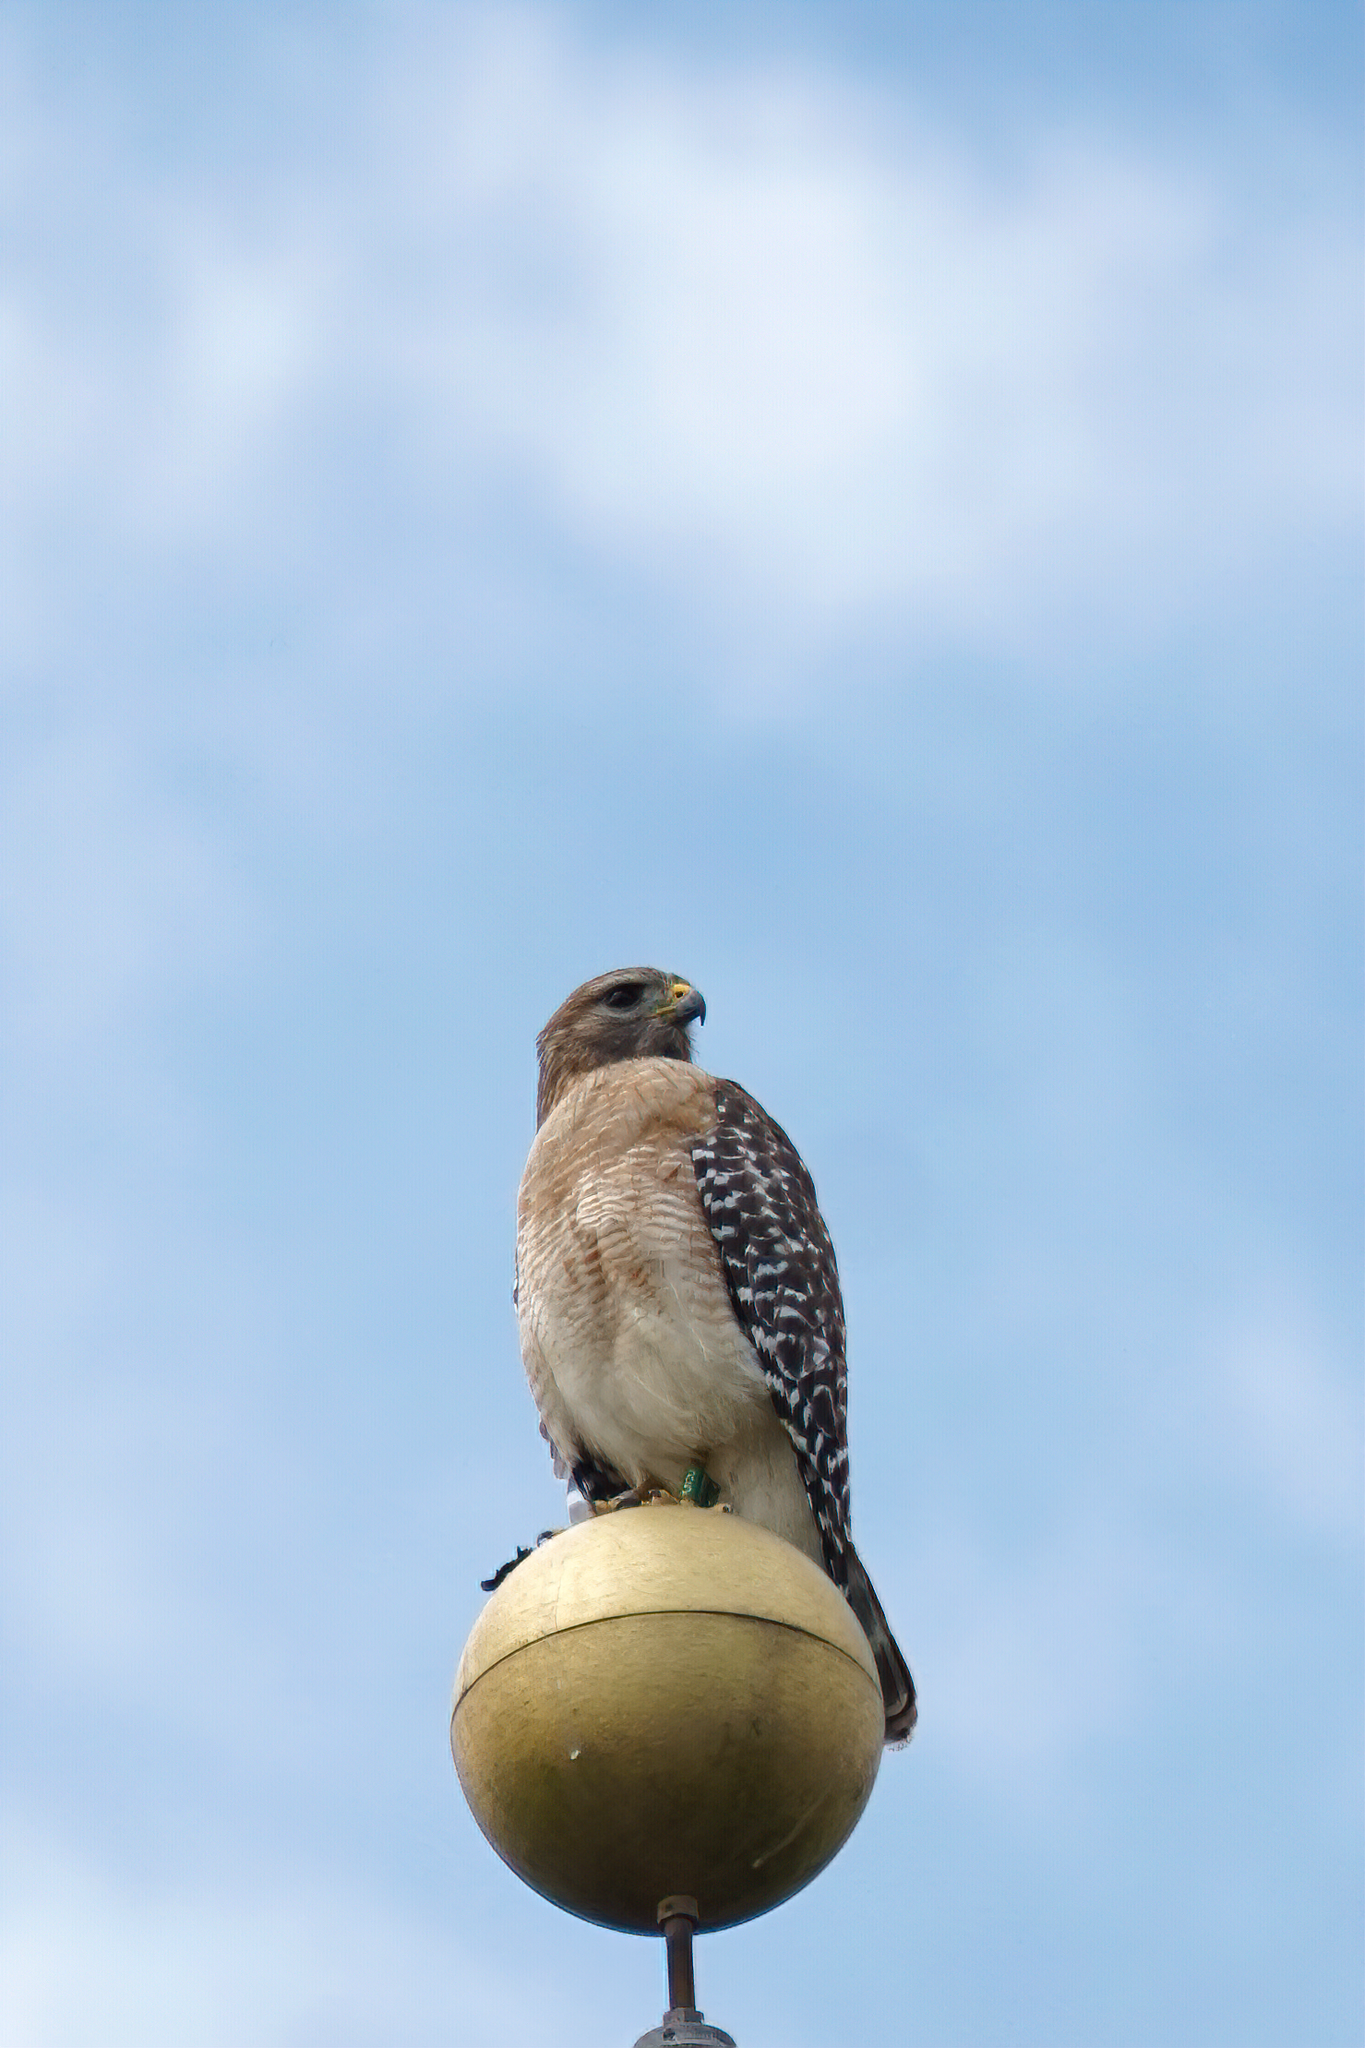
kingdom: Animalia
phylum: Chordata
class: Aves
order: Accipitriformes
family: Accipitridae
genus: Buteo
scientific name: Buteo lineatus
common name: Red-shouldered hawk
